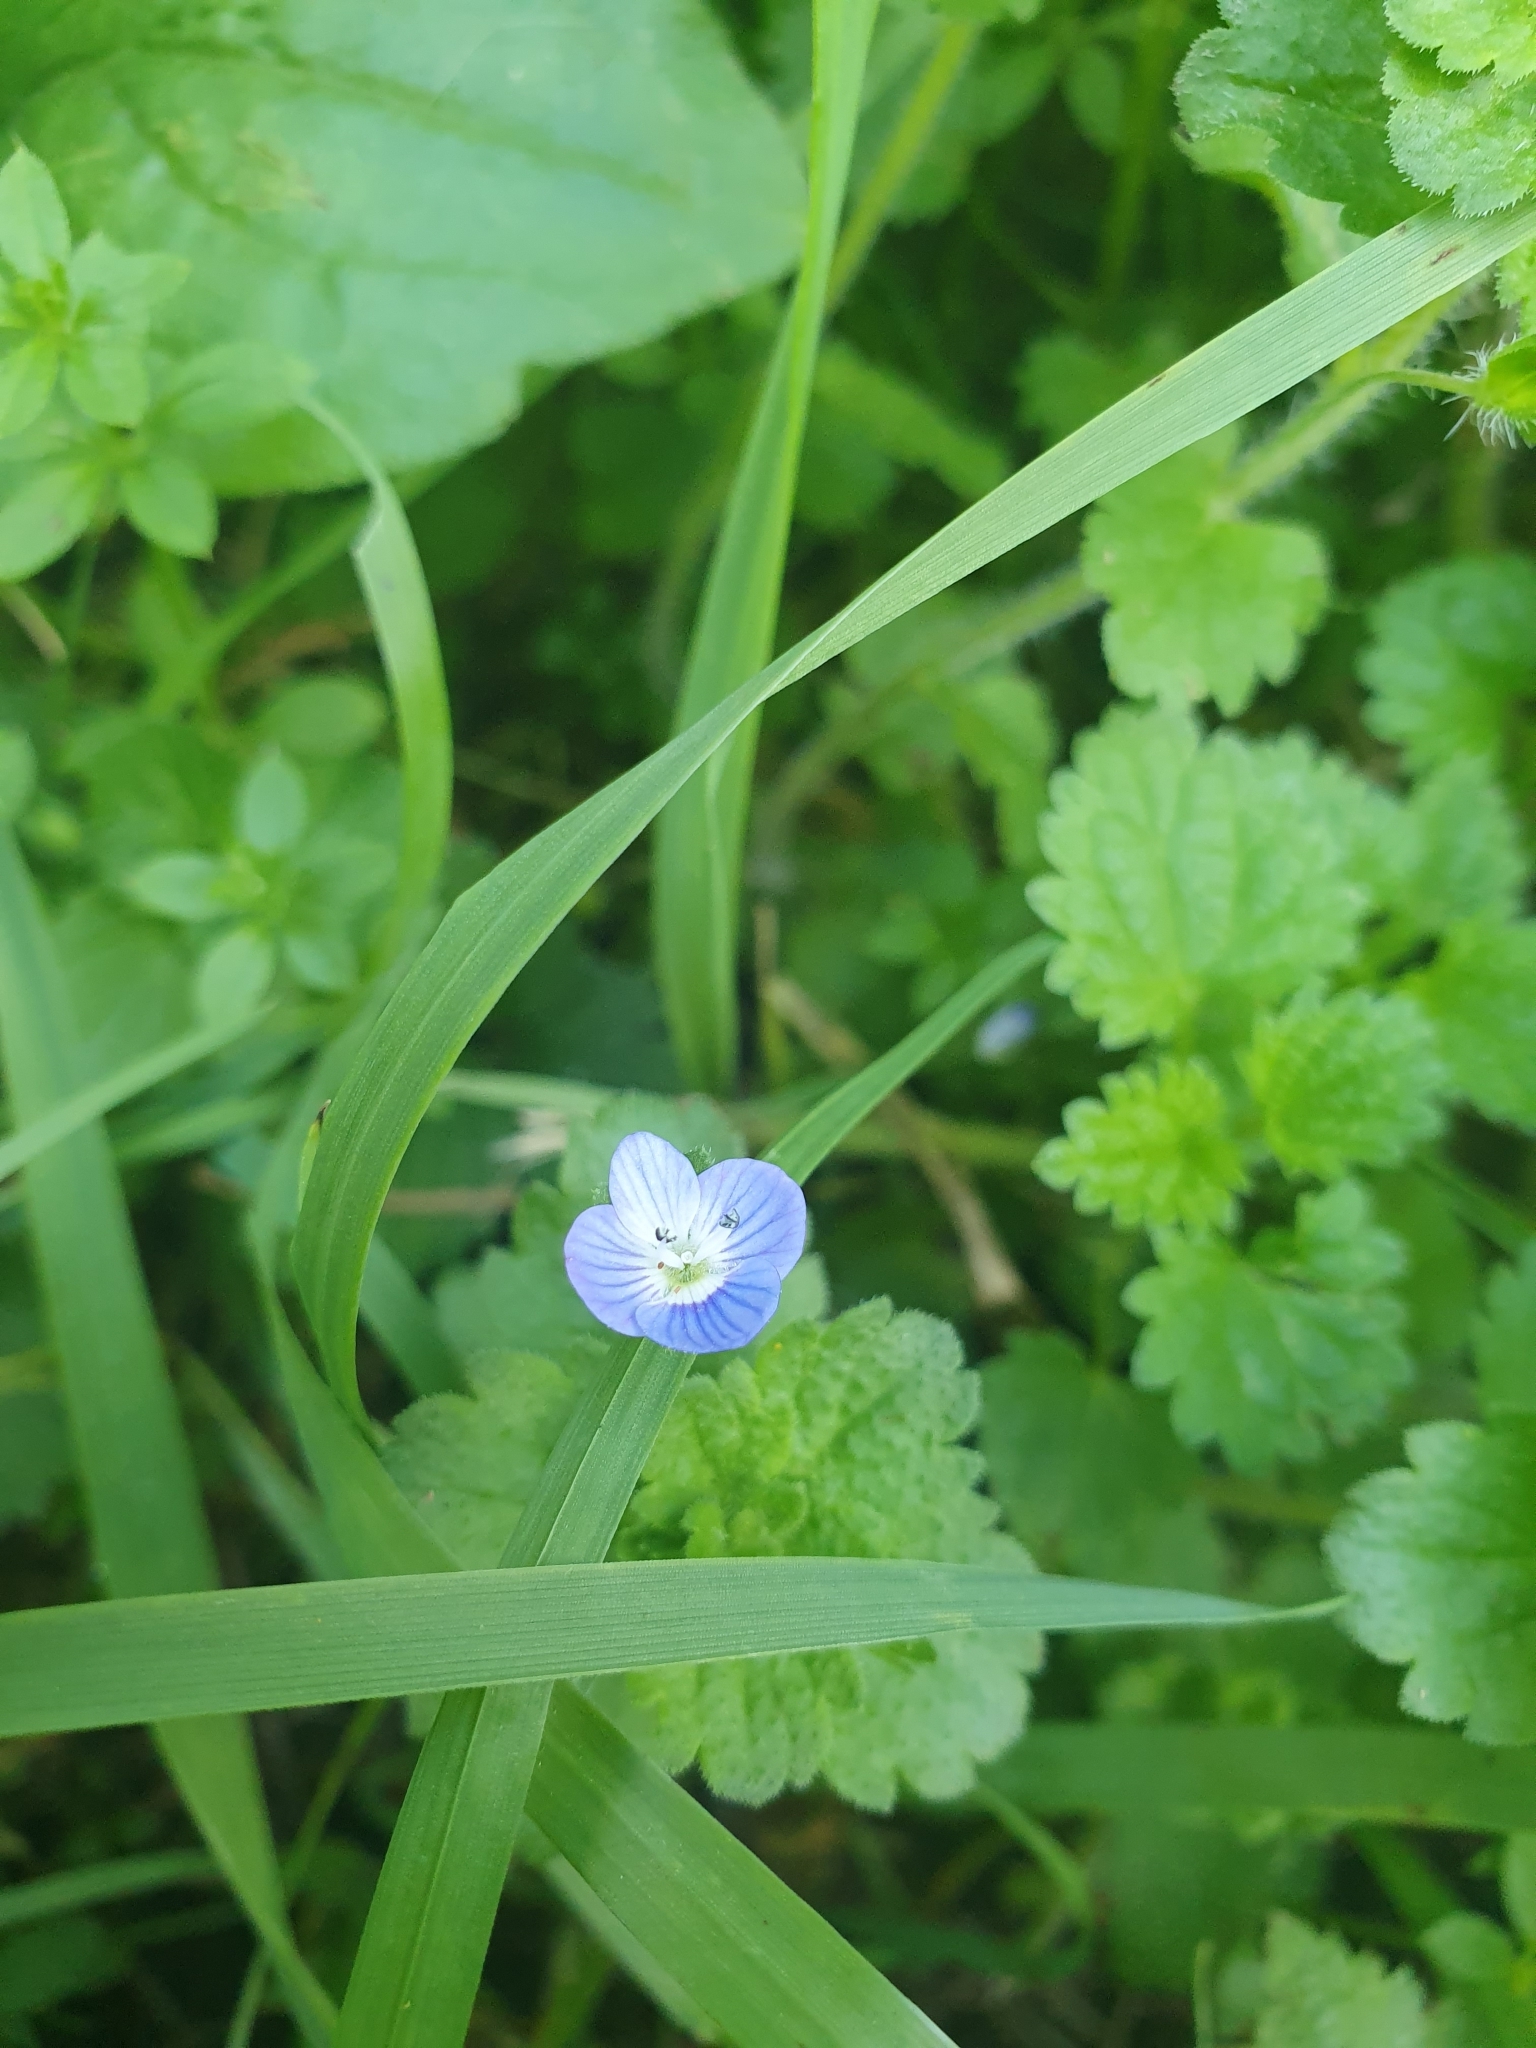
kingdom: Plantae
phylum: Tracheophyta
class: Magnoliopsida
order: Lamiales
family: Plantaginaceae
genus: Veronica
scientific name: Veronica persica
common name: Common field-speedwell
